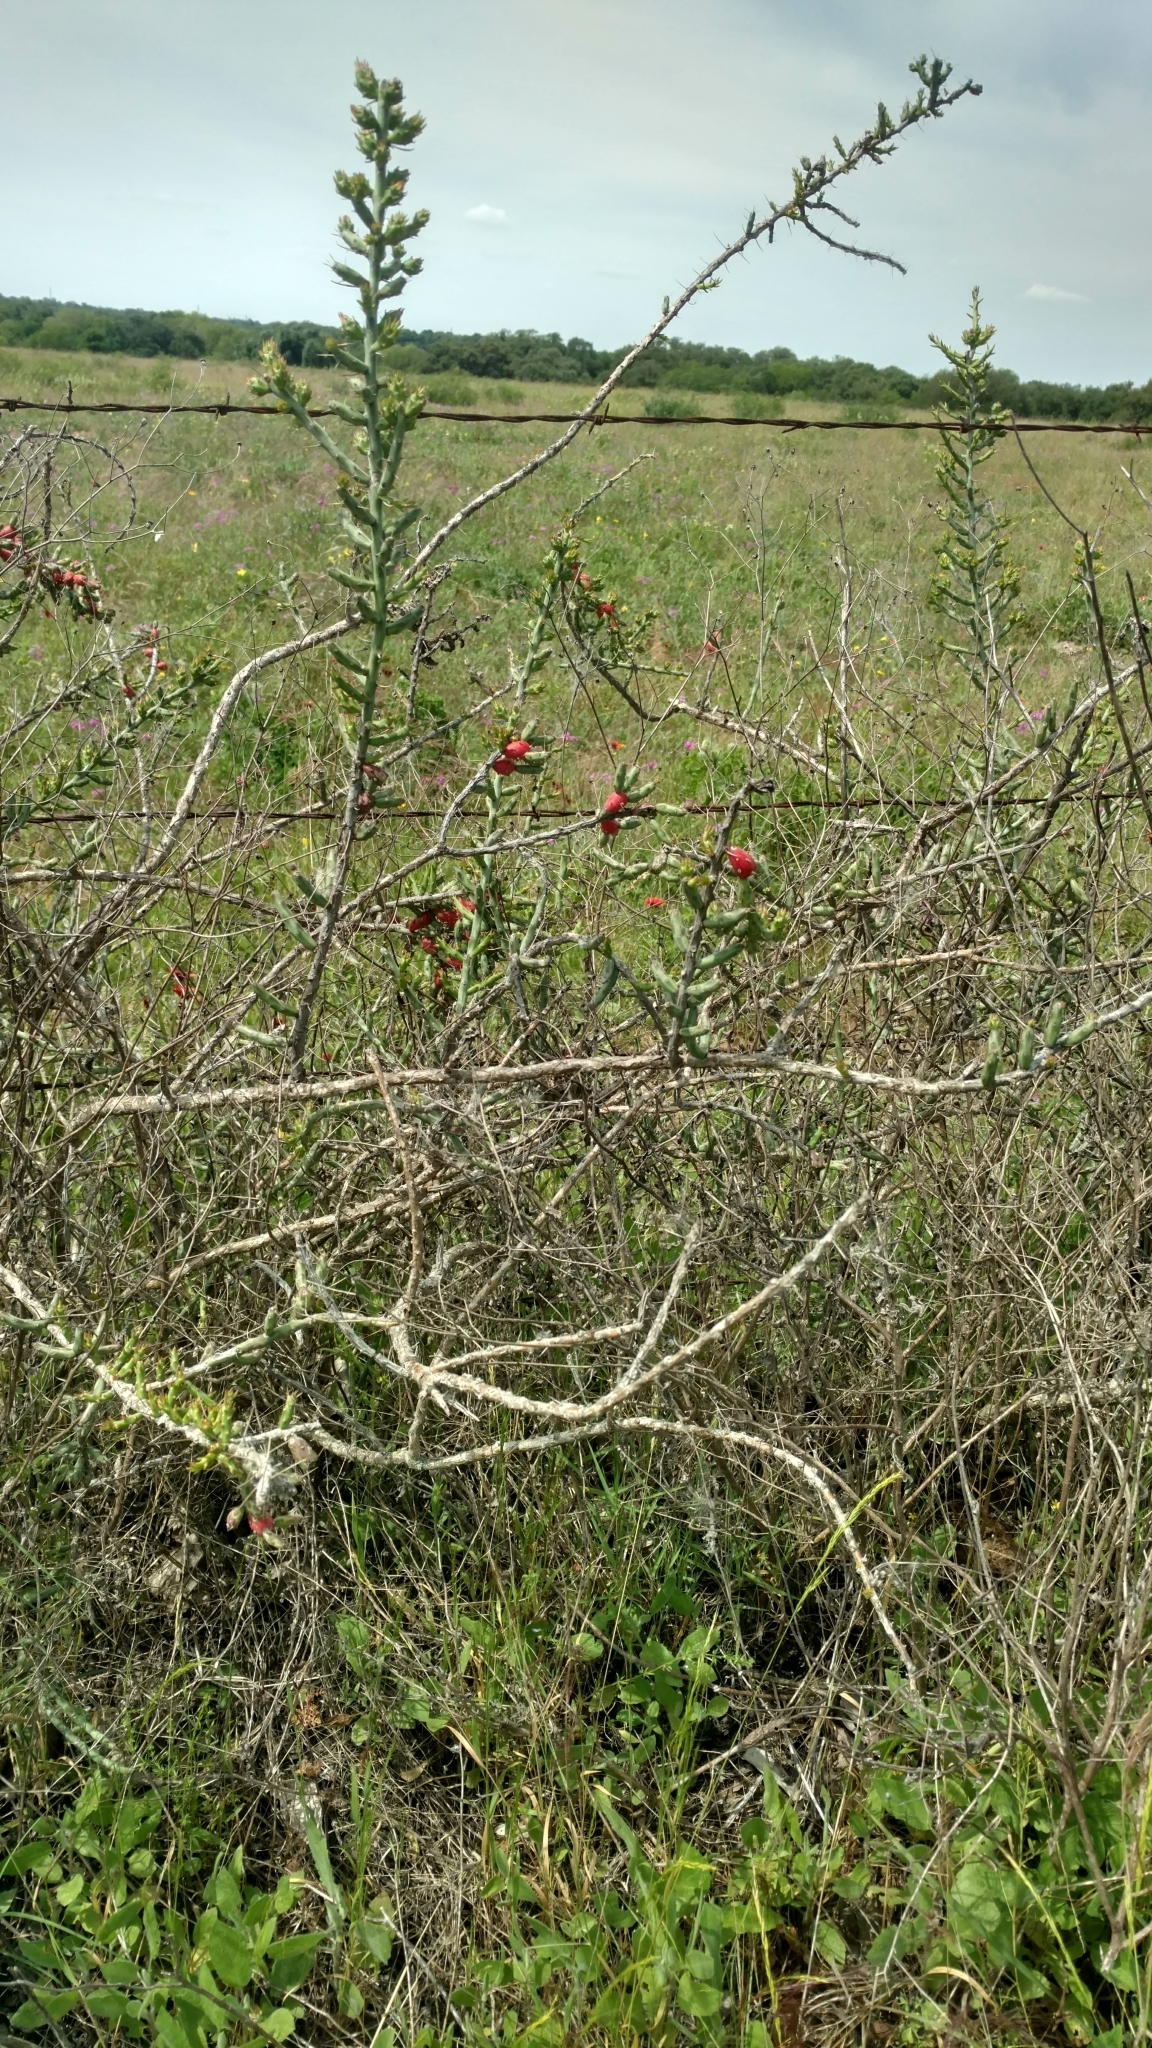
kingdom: Plantae
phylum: Tracheophyta
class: Magnoliopsida
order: Caryophyllales
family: Cactaceae
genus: Cylindropuntia
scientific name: Cylindropuntia leptocaulis
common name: Christmas cactus
